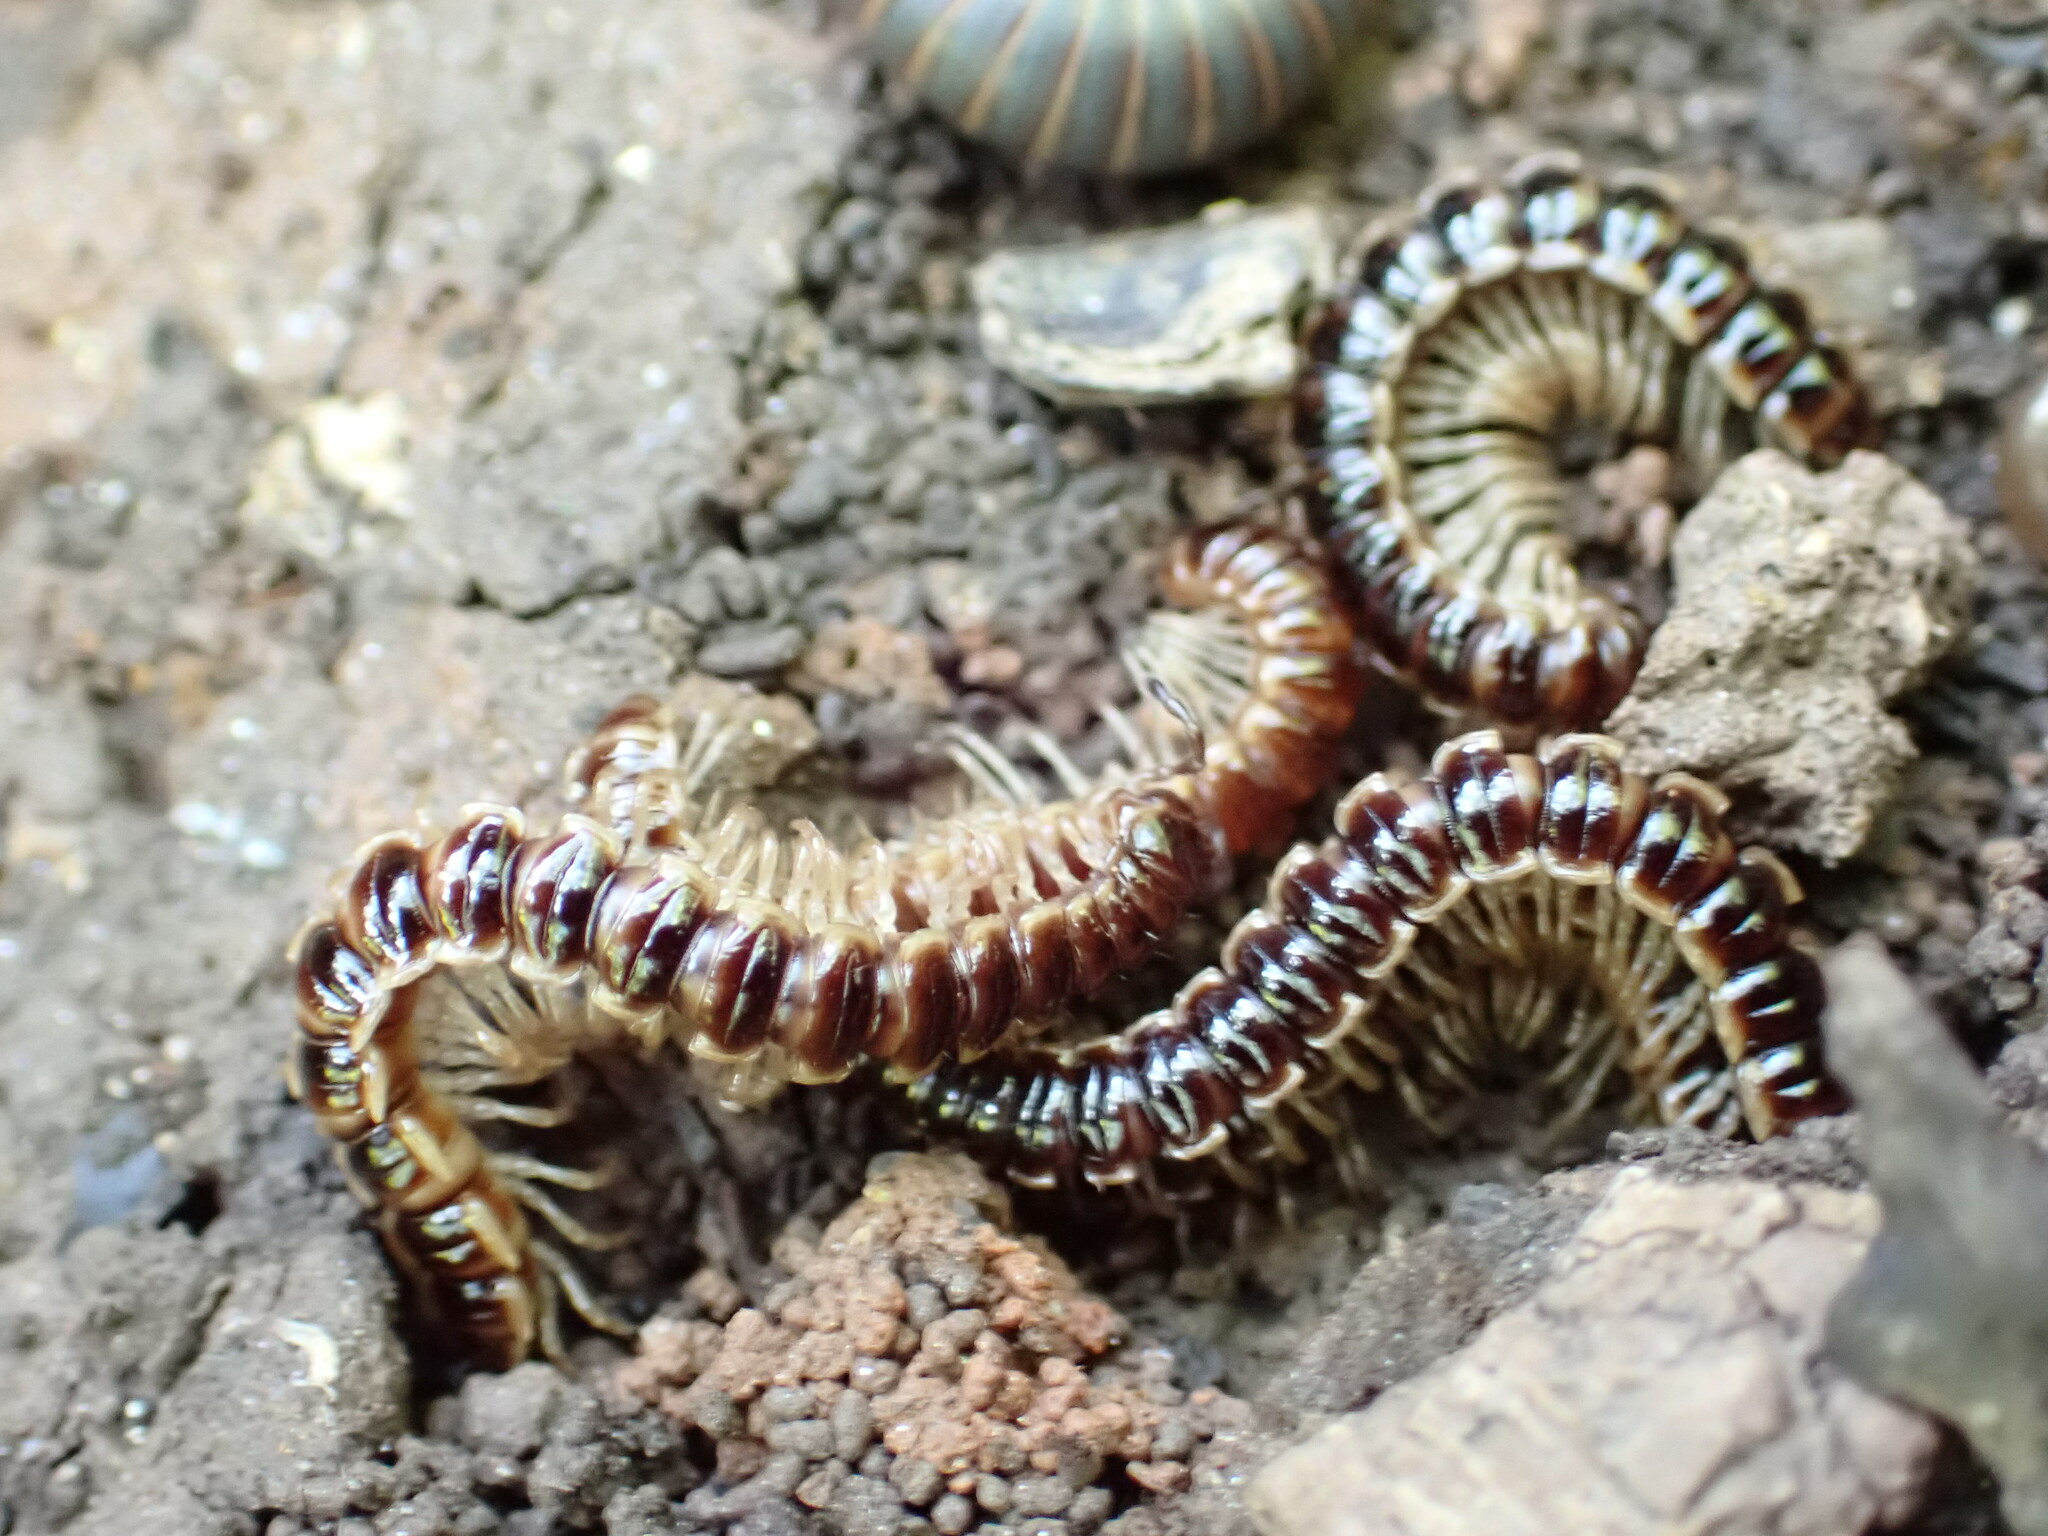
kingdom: Animalia
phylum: Arthropoda
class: Diplopoda
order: Polydesmida
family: Paradoxosomatidae
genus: Oxidus
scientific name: Oxidus gracilis
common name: Greenhouse millipede
